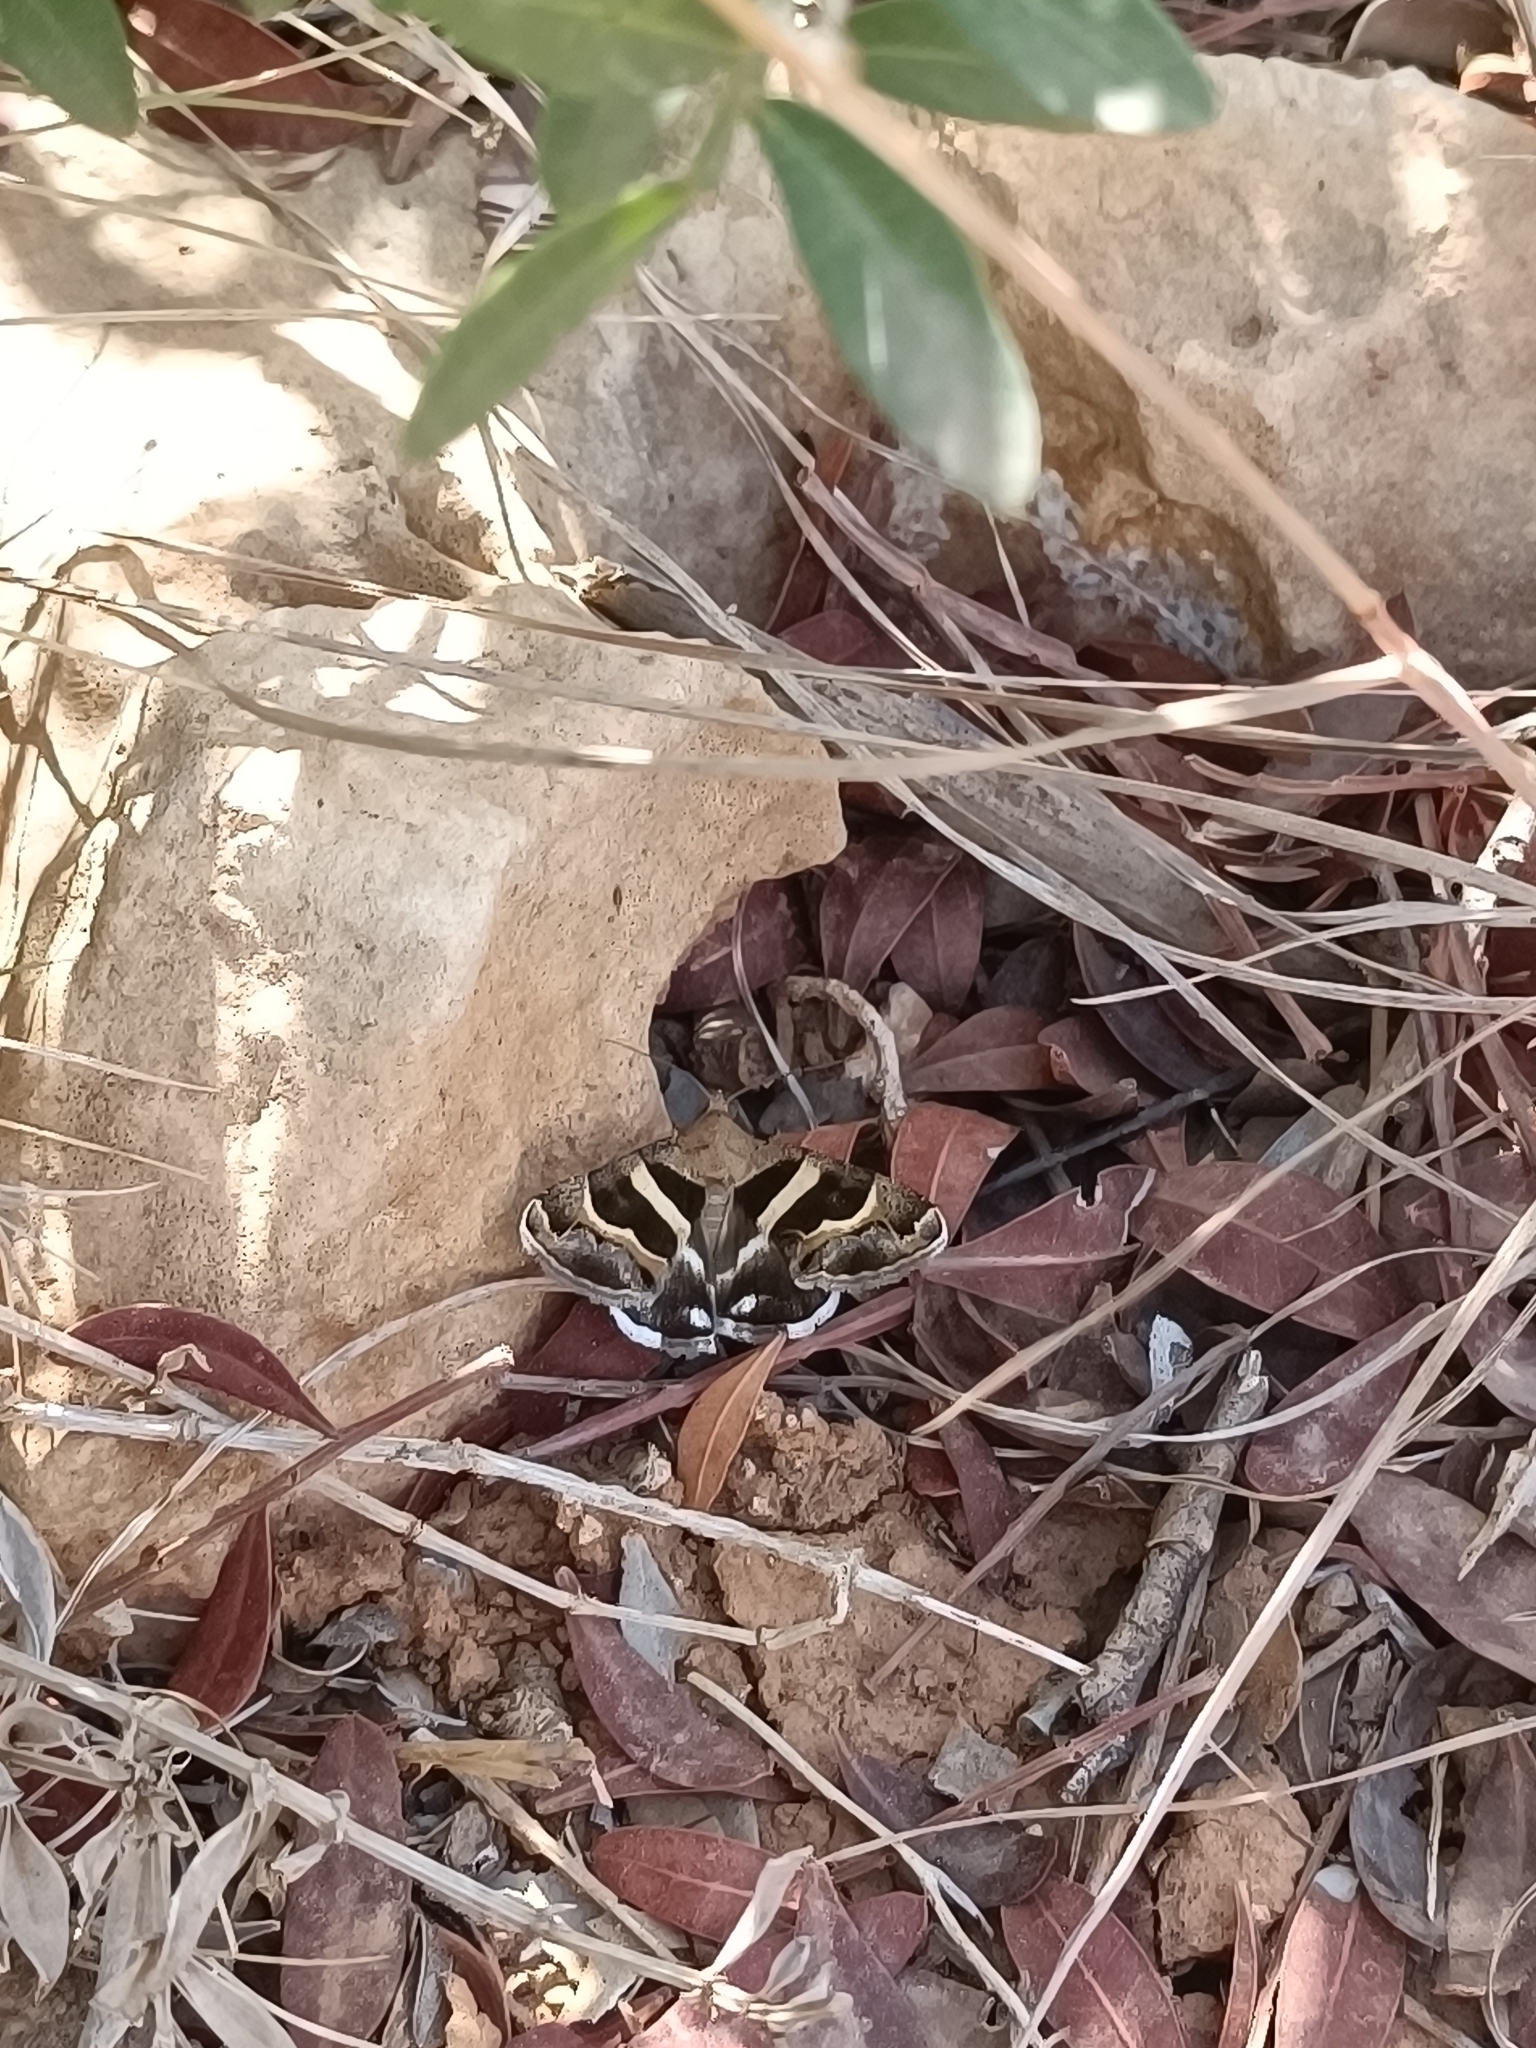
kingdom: Animalia
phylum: Arthropoda
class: Insecta
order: Lepidoptera
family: Erebidae
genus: Grammodes
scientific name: Grammodes stolida
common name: Geometrician
